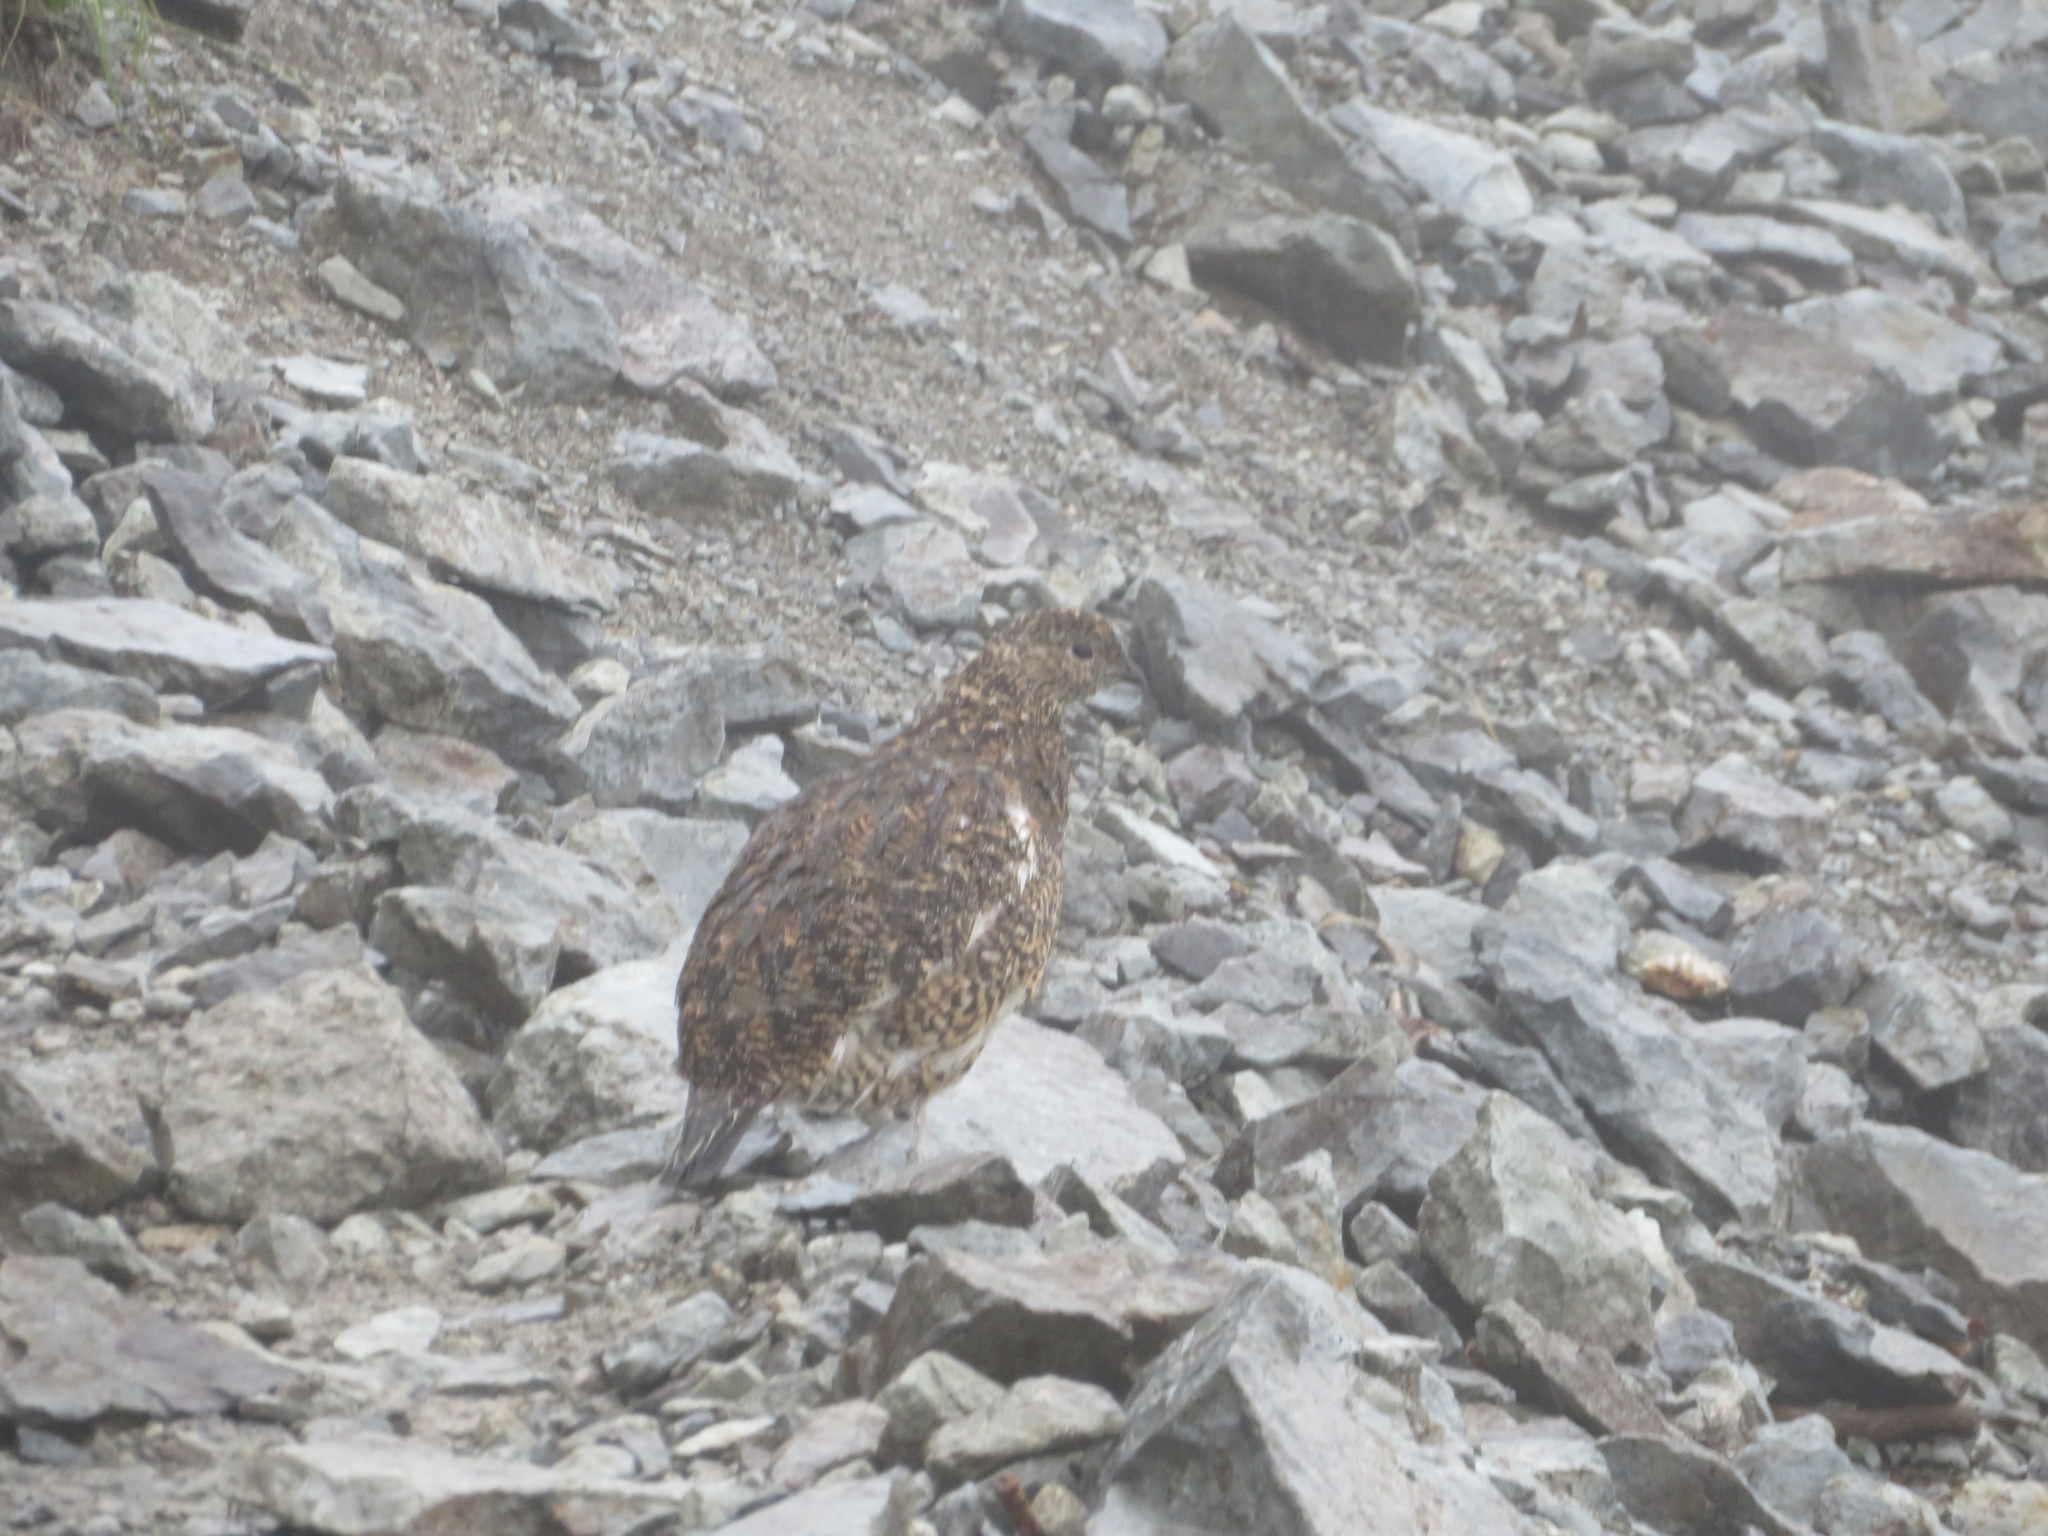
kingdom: Animalia
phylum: Chordata
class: Aves
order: Galliformes
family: Phasianidae
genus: Lagopus
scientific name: Lagopus muta
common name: Rock ptarmigan
